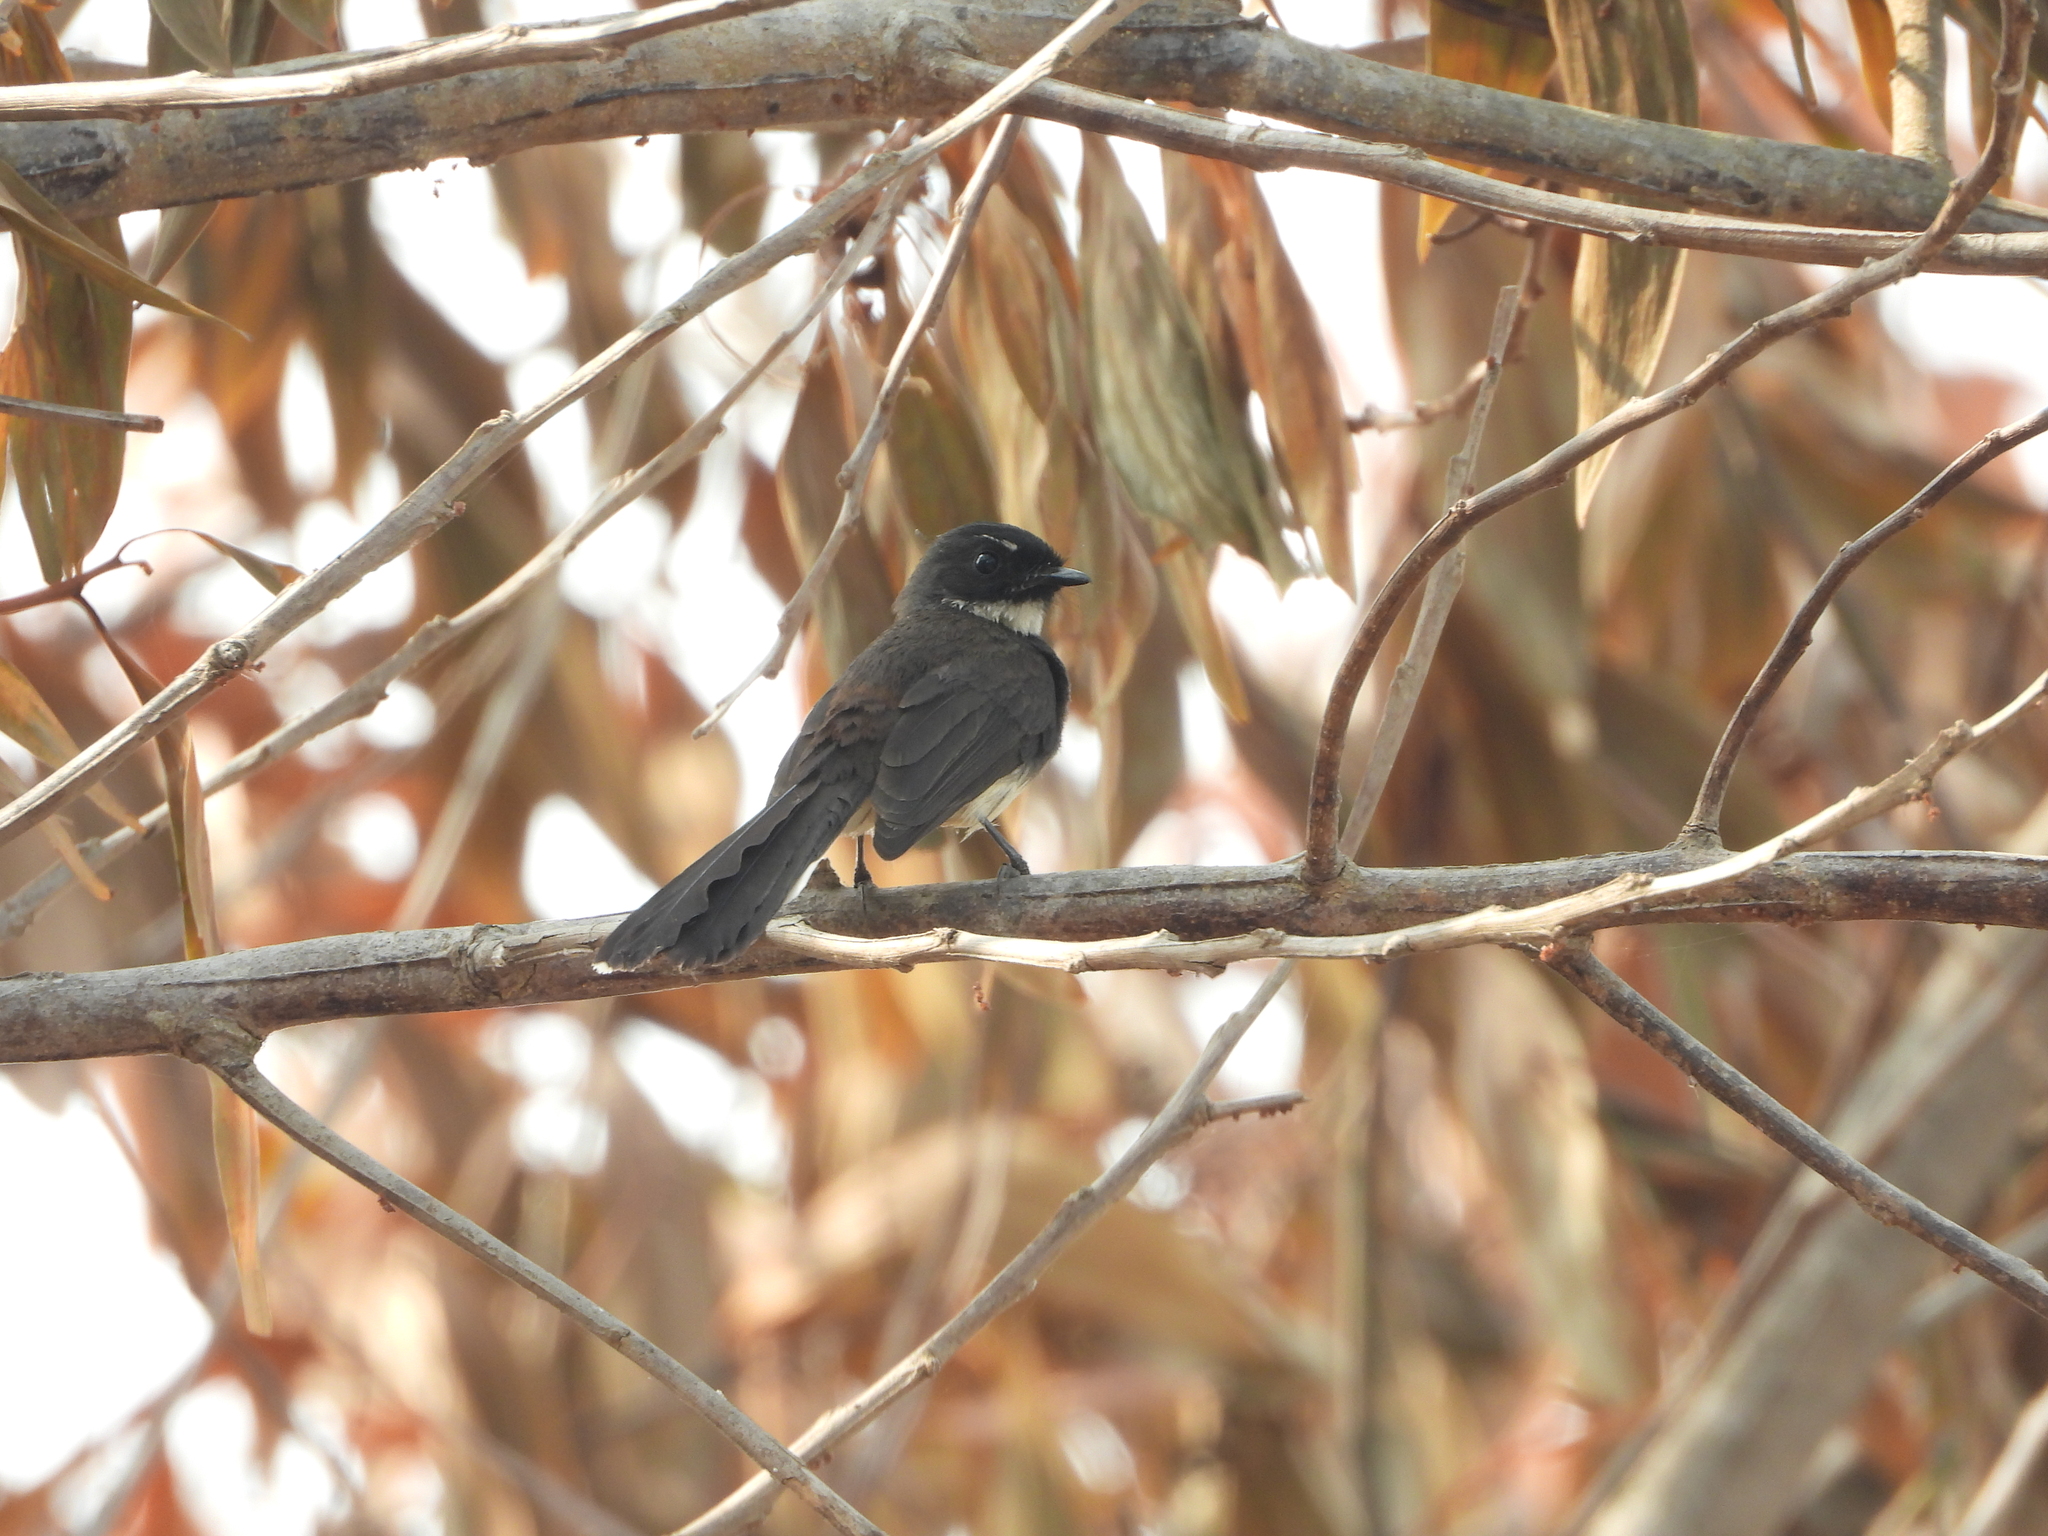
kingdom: Animalia
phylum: Chordata
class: Aves
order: Passeriformes
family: Rhipiduridae
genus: Rhipidura
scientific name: Rhipidura javanica
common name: Pied fantail
